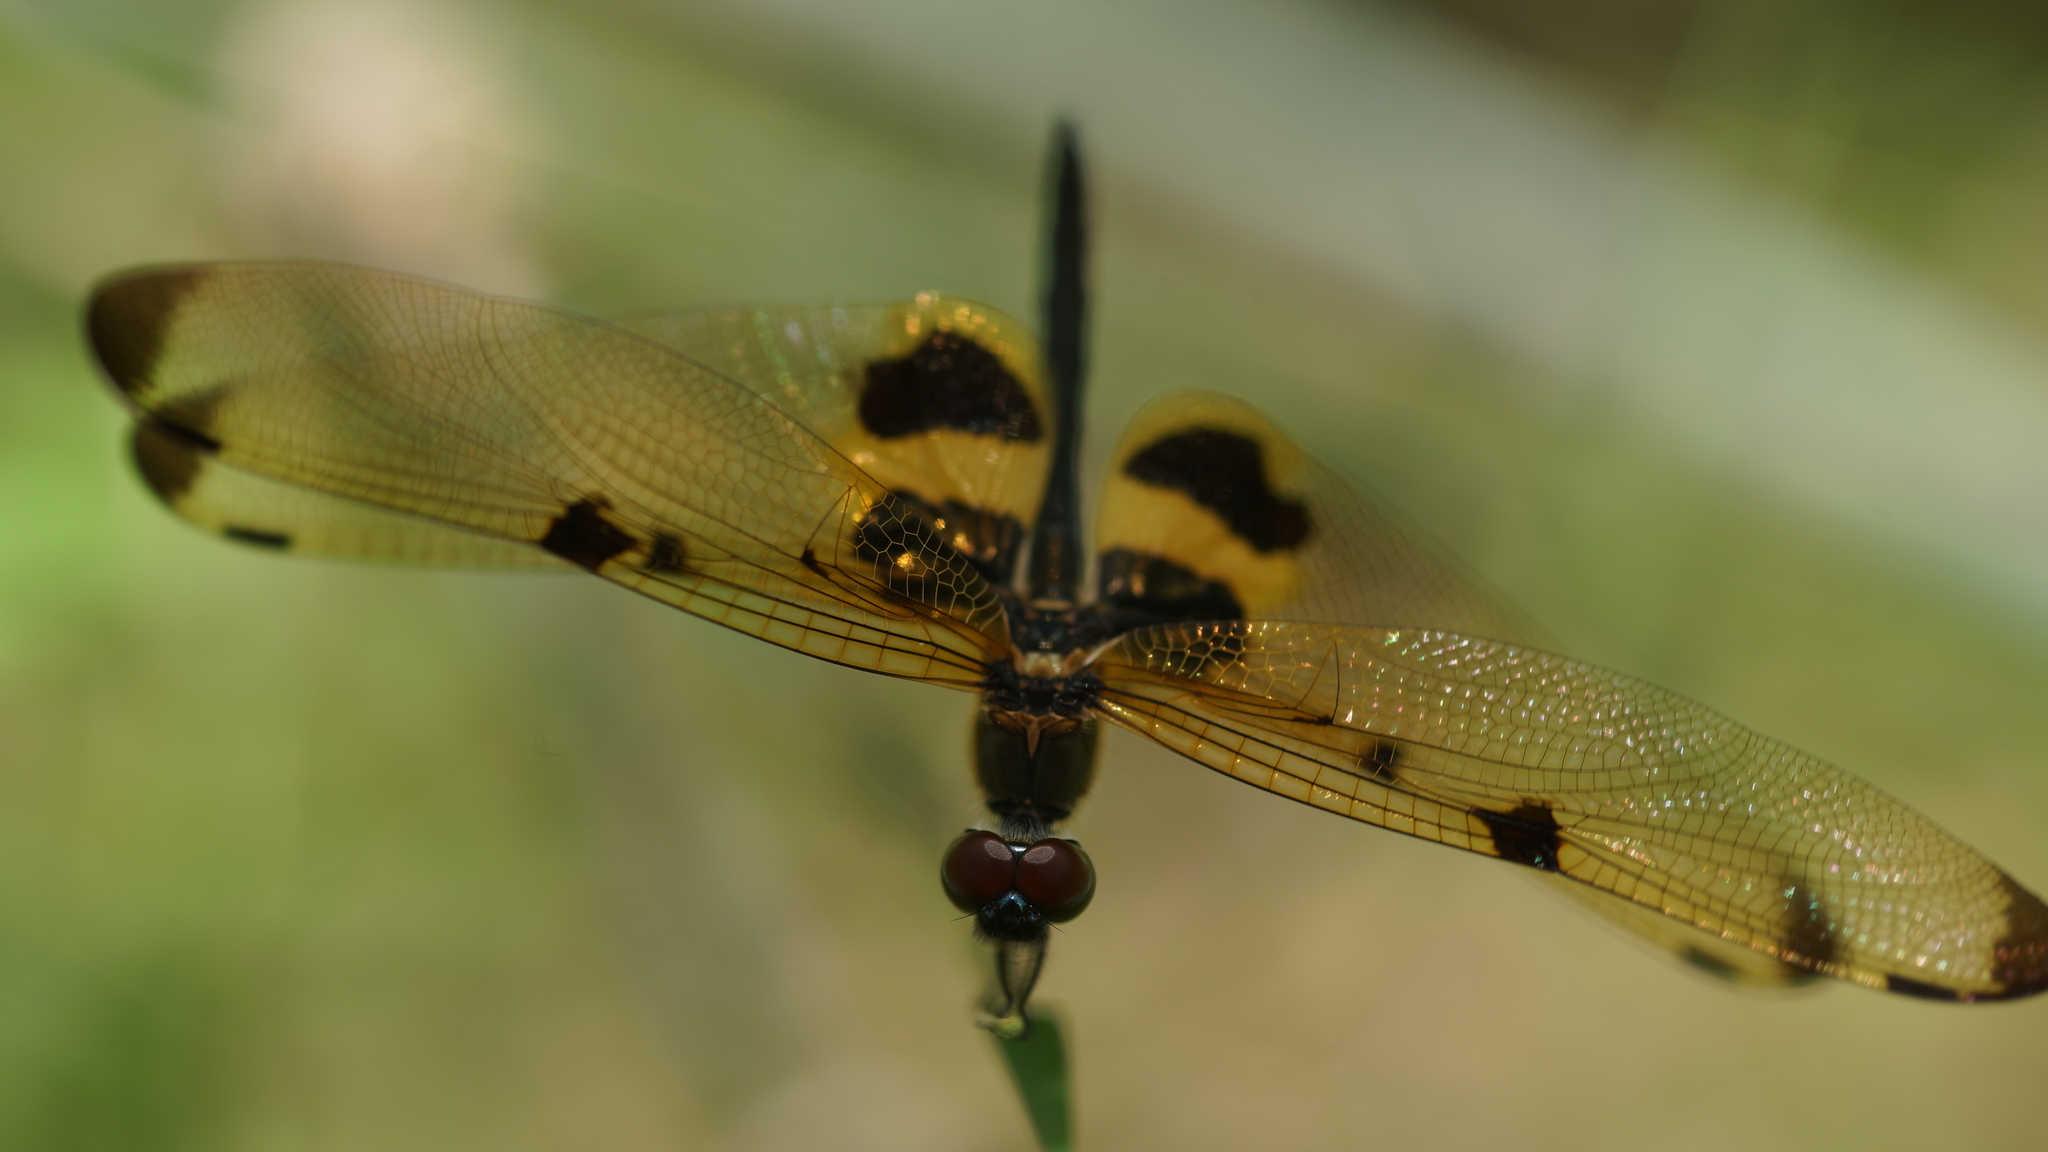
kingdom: Animalia
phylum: Arthropoda
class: Insecta
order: Odonata
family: Libellulidae
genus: Rhyothemis
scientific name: Rhyothemis phyllis
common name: Yellow-barred flutterer
